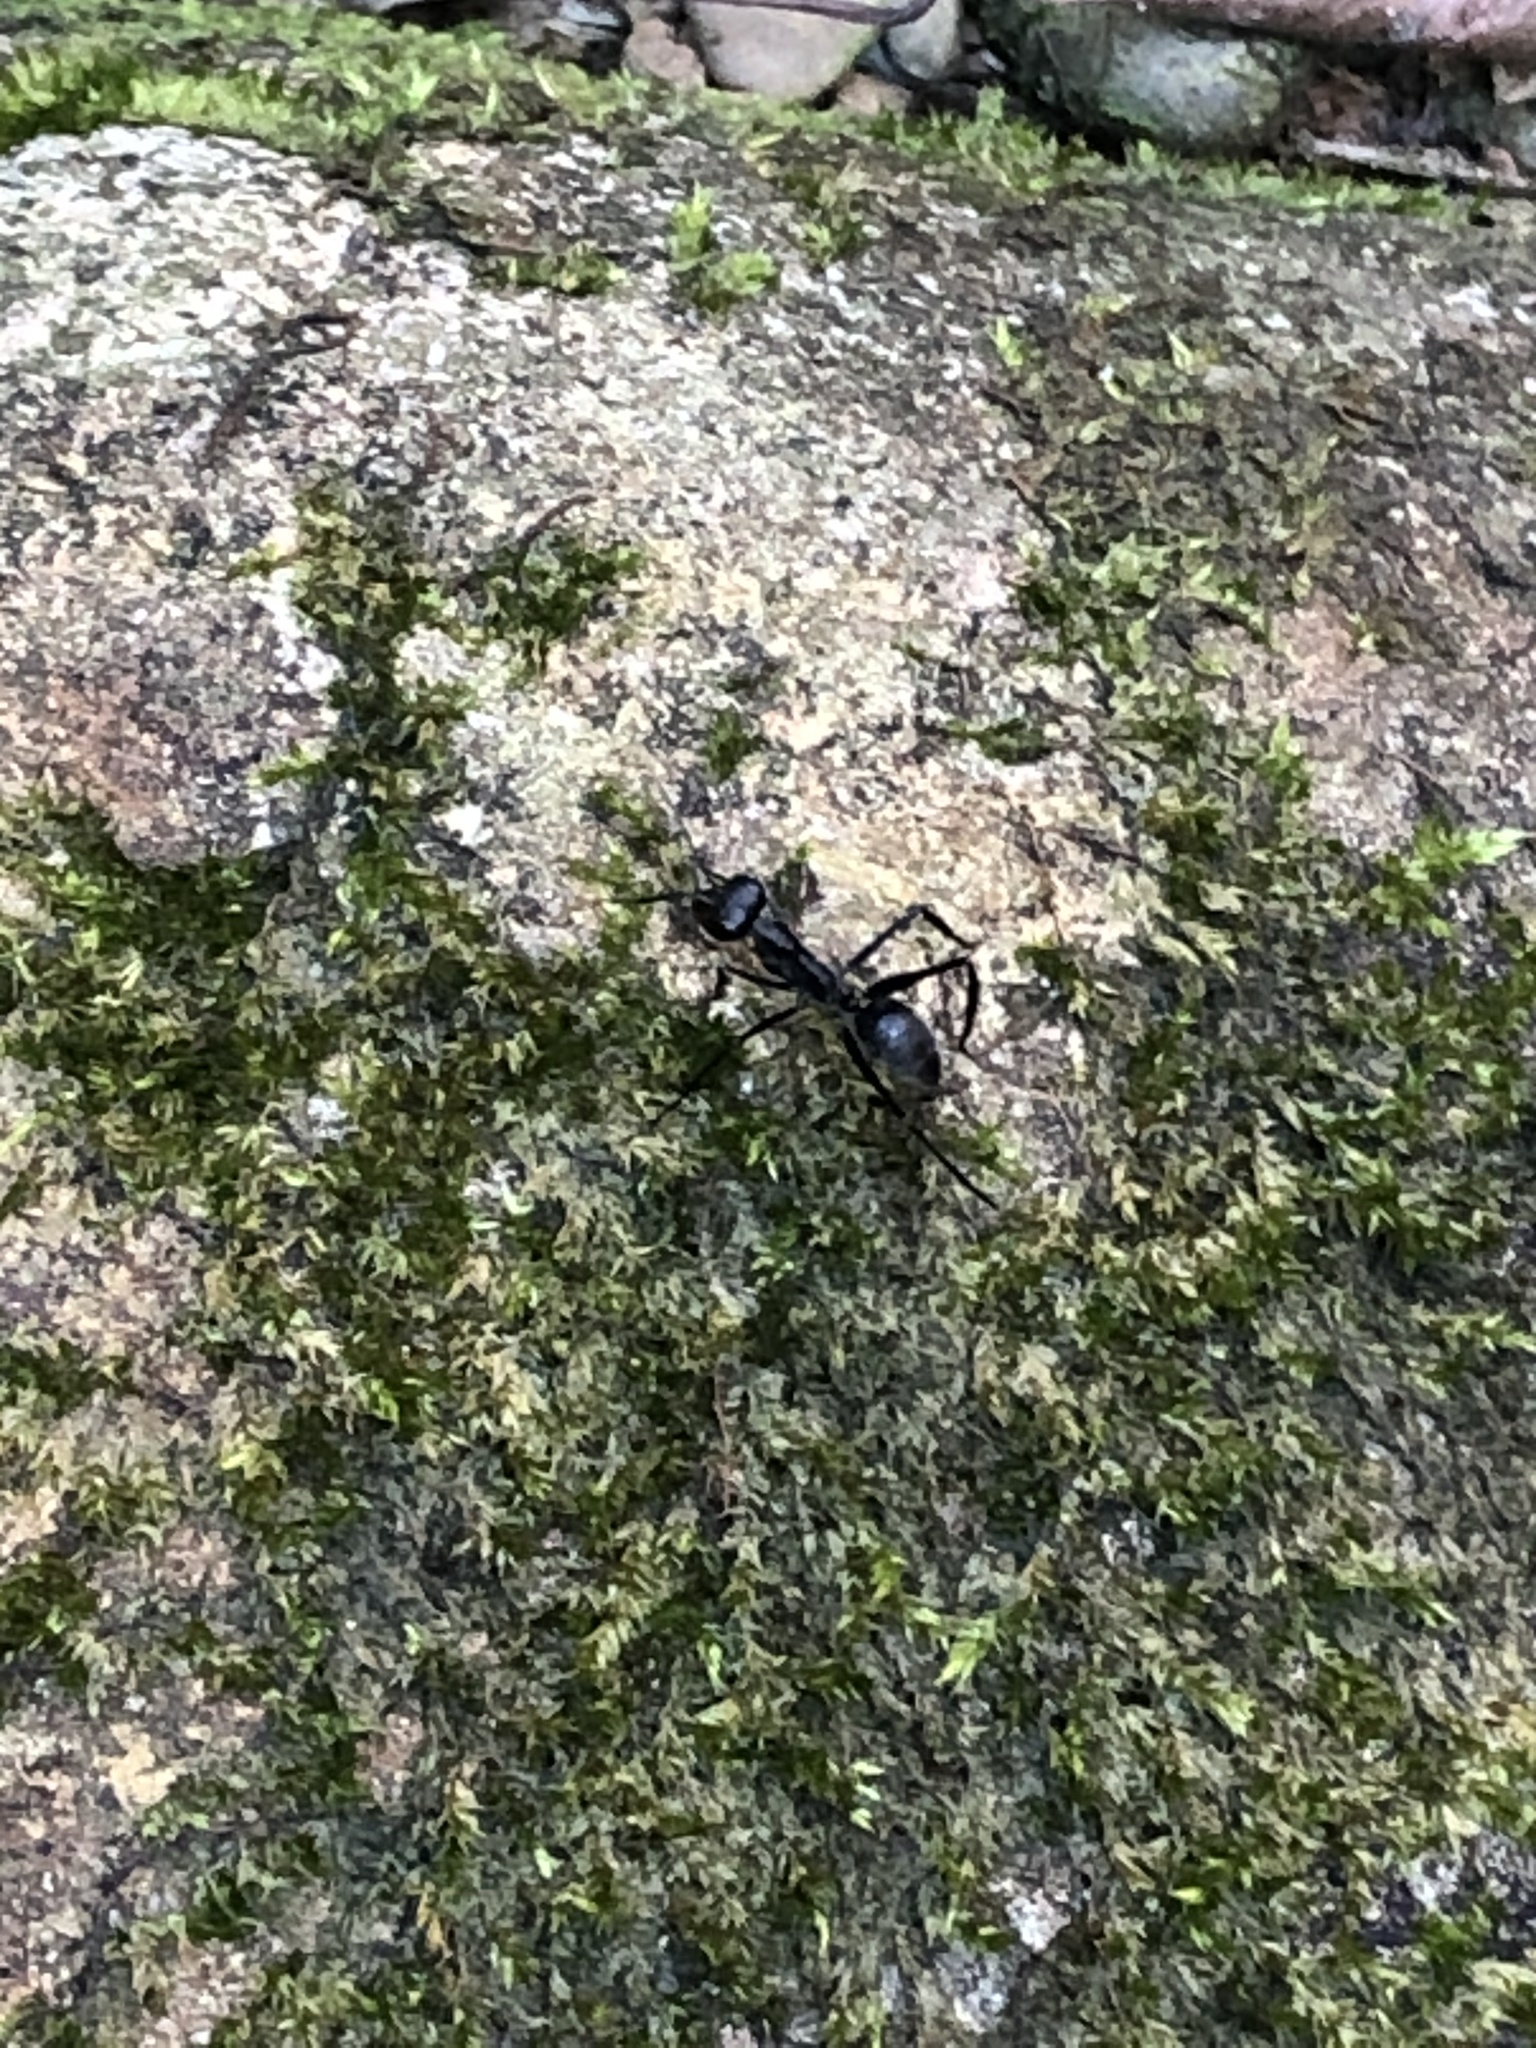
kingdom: Animalia
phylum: Arthropoda
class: Insecta
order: Hymenoptera
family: Formicidae
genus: Gigantiops
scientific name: Gigantiops destructor
